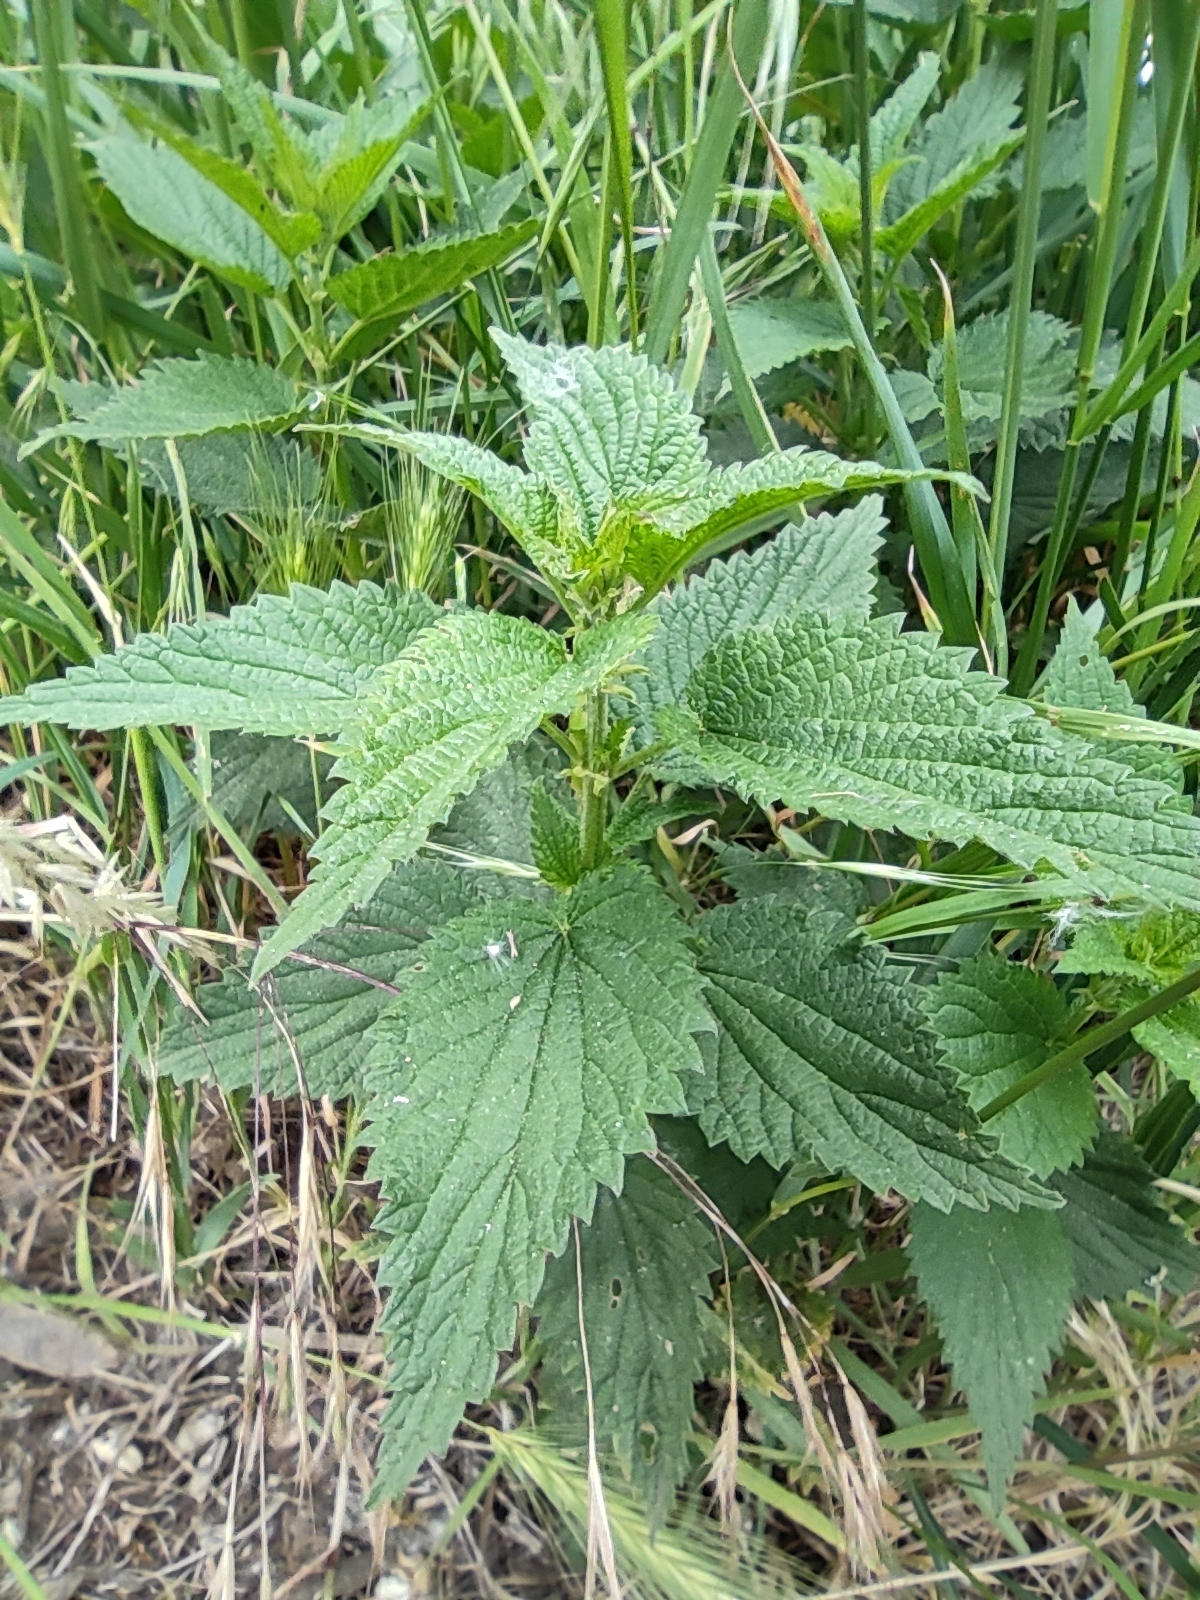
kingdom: Plantae
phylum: Tracheophyta
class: Magnoliopsida
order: Rosales
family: Urticaceae
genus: Urtica
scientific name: Urtica dioica
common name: Common nettle
